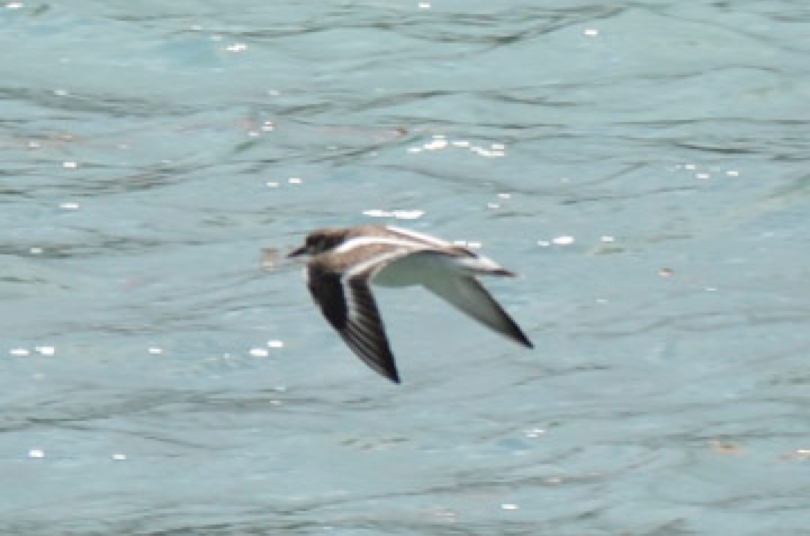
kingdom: Animalia
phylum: Chordata
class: Aves
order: Charadriiformes
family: Scolopacidae
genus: Arenaria
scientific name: Arenaria interpres
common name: Ruddy turnstone
